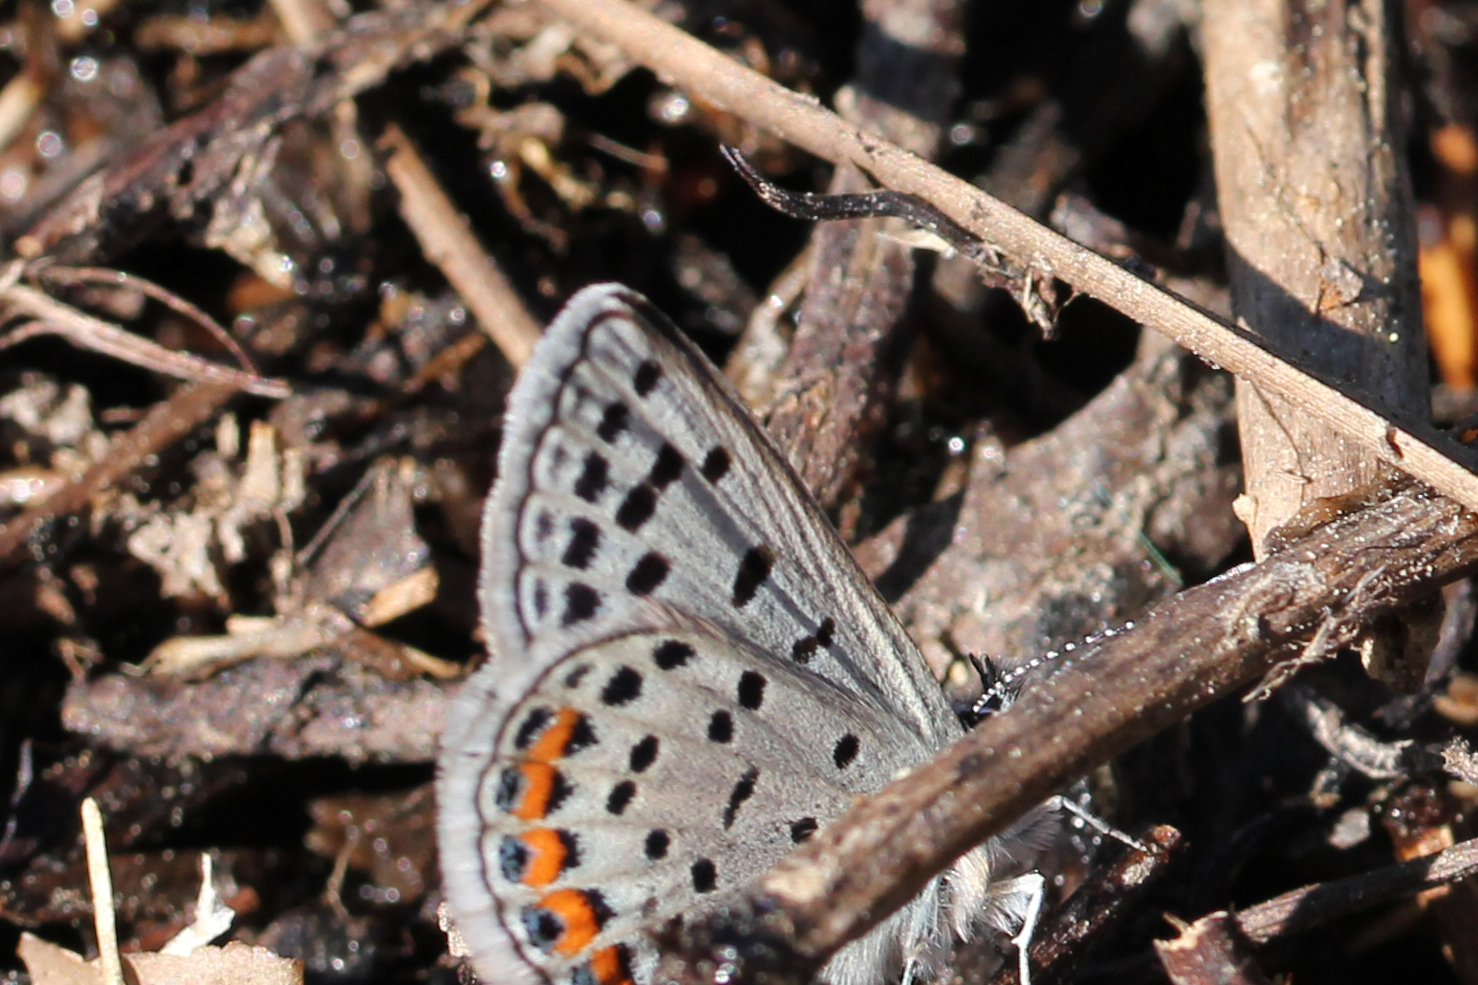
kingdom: Animalia
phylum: Arthropoda
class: Insecta
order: Lepidoptera
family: Lycaenidae
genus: Icaricia
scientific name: Icaricia lupini
